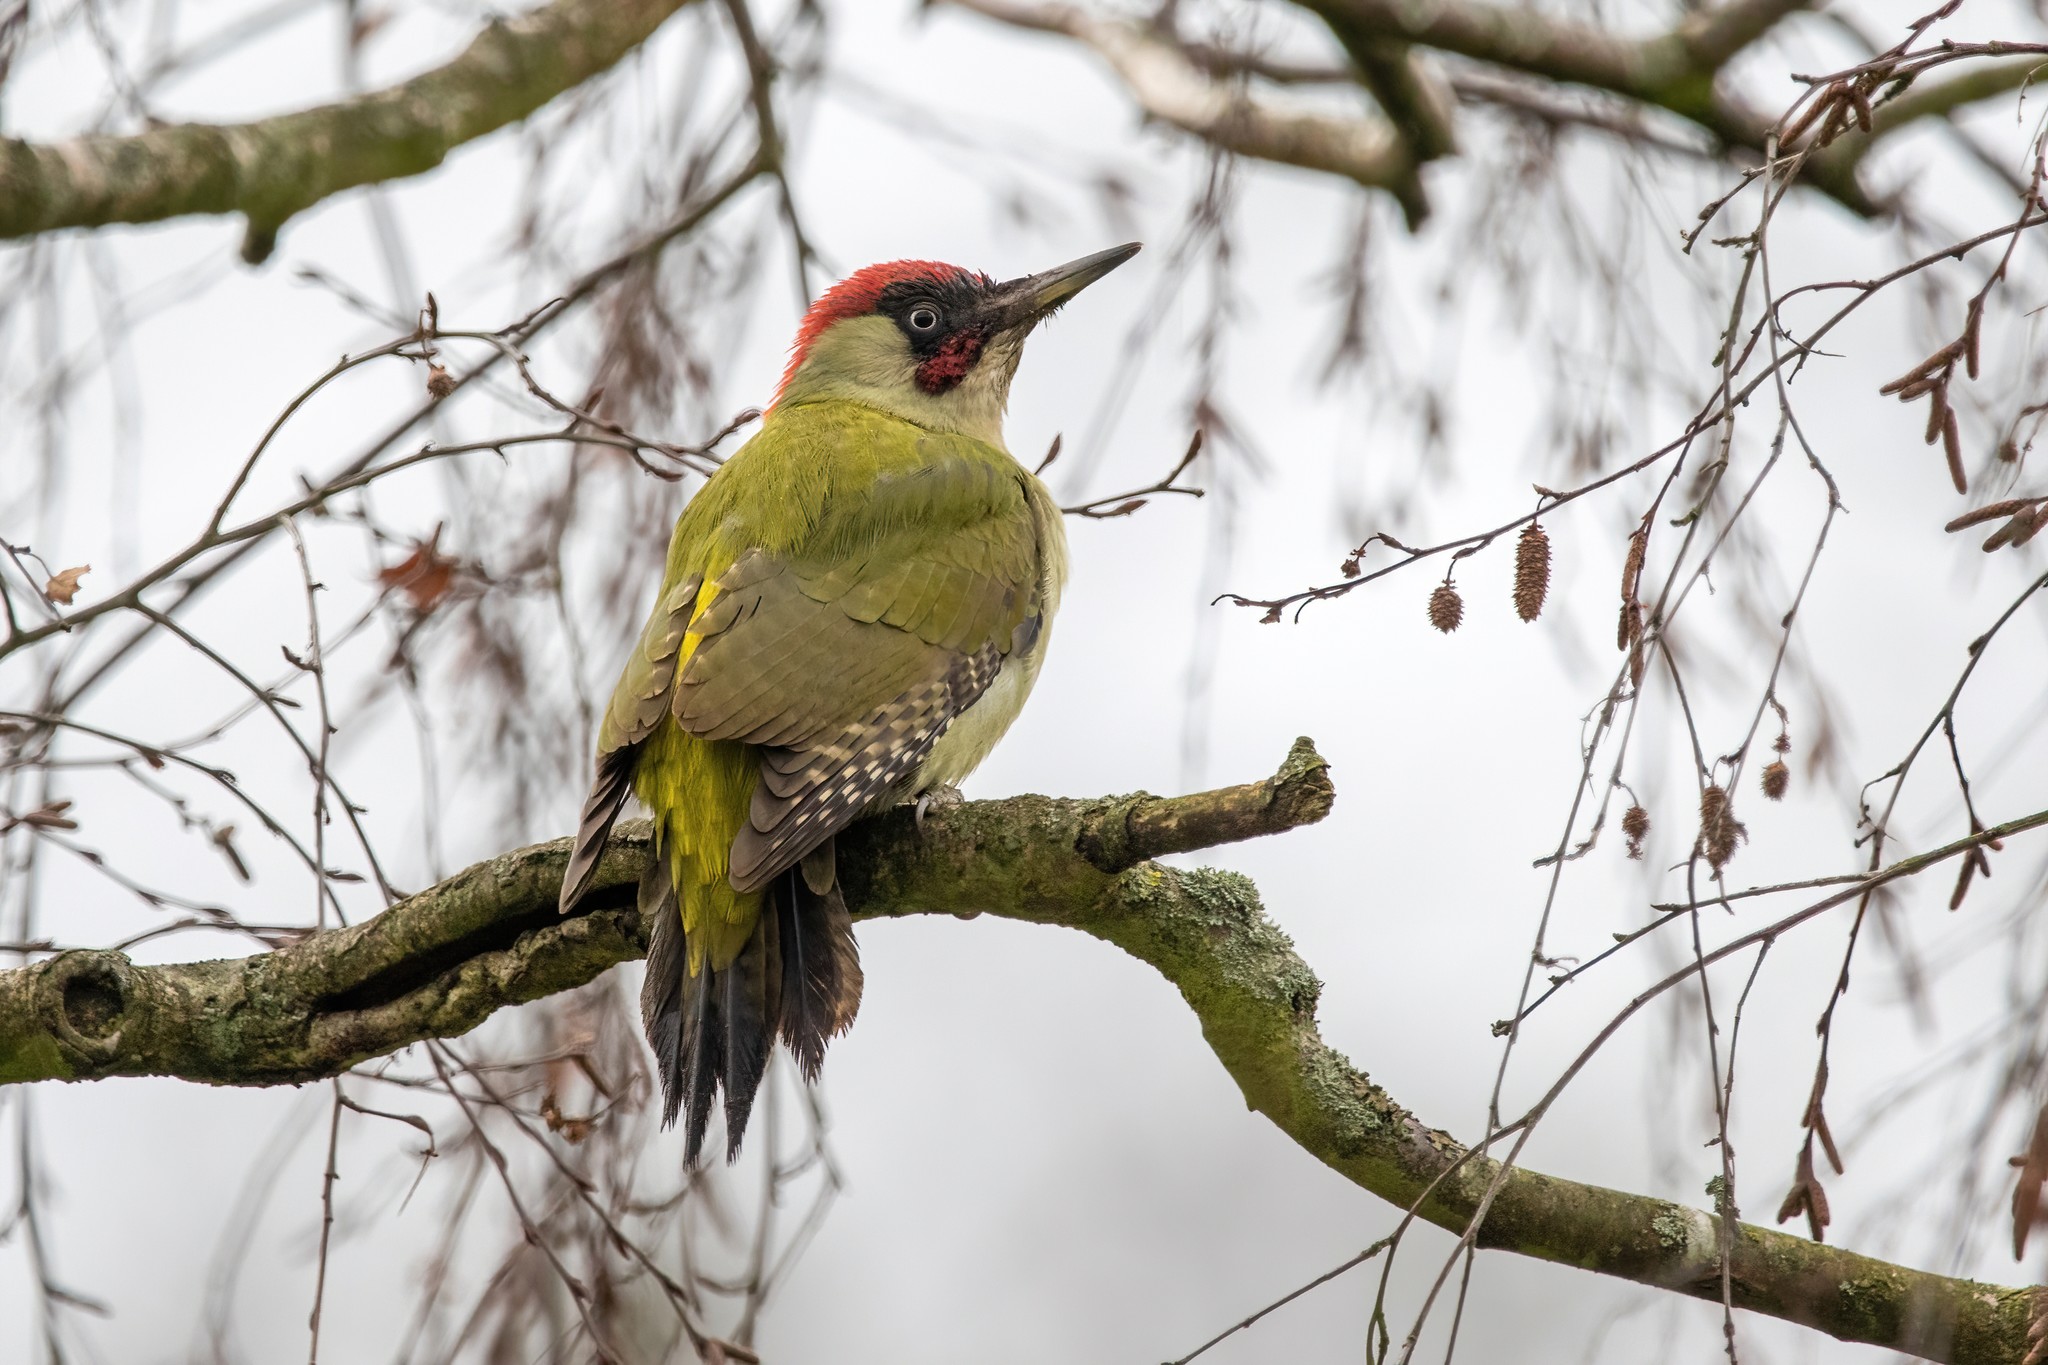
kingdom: Animalia
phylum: Chordata
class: Aves
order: Piciformes
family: Picidae
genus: Picus
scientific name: Picus viridis
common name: European green woodpecker
